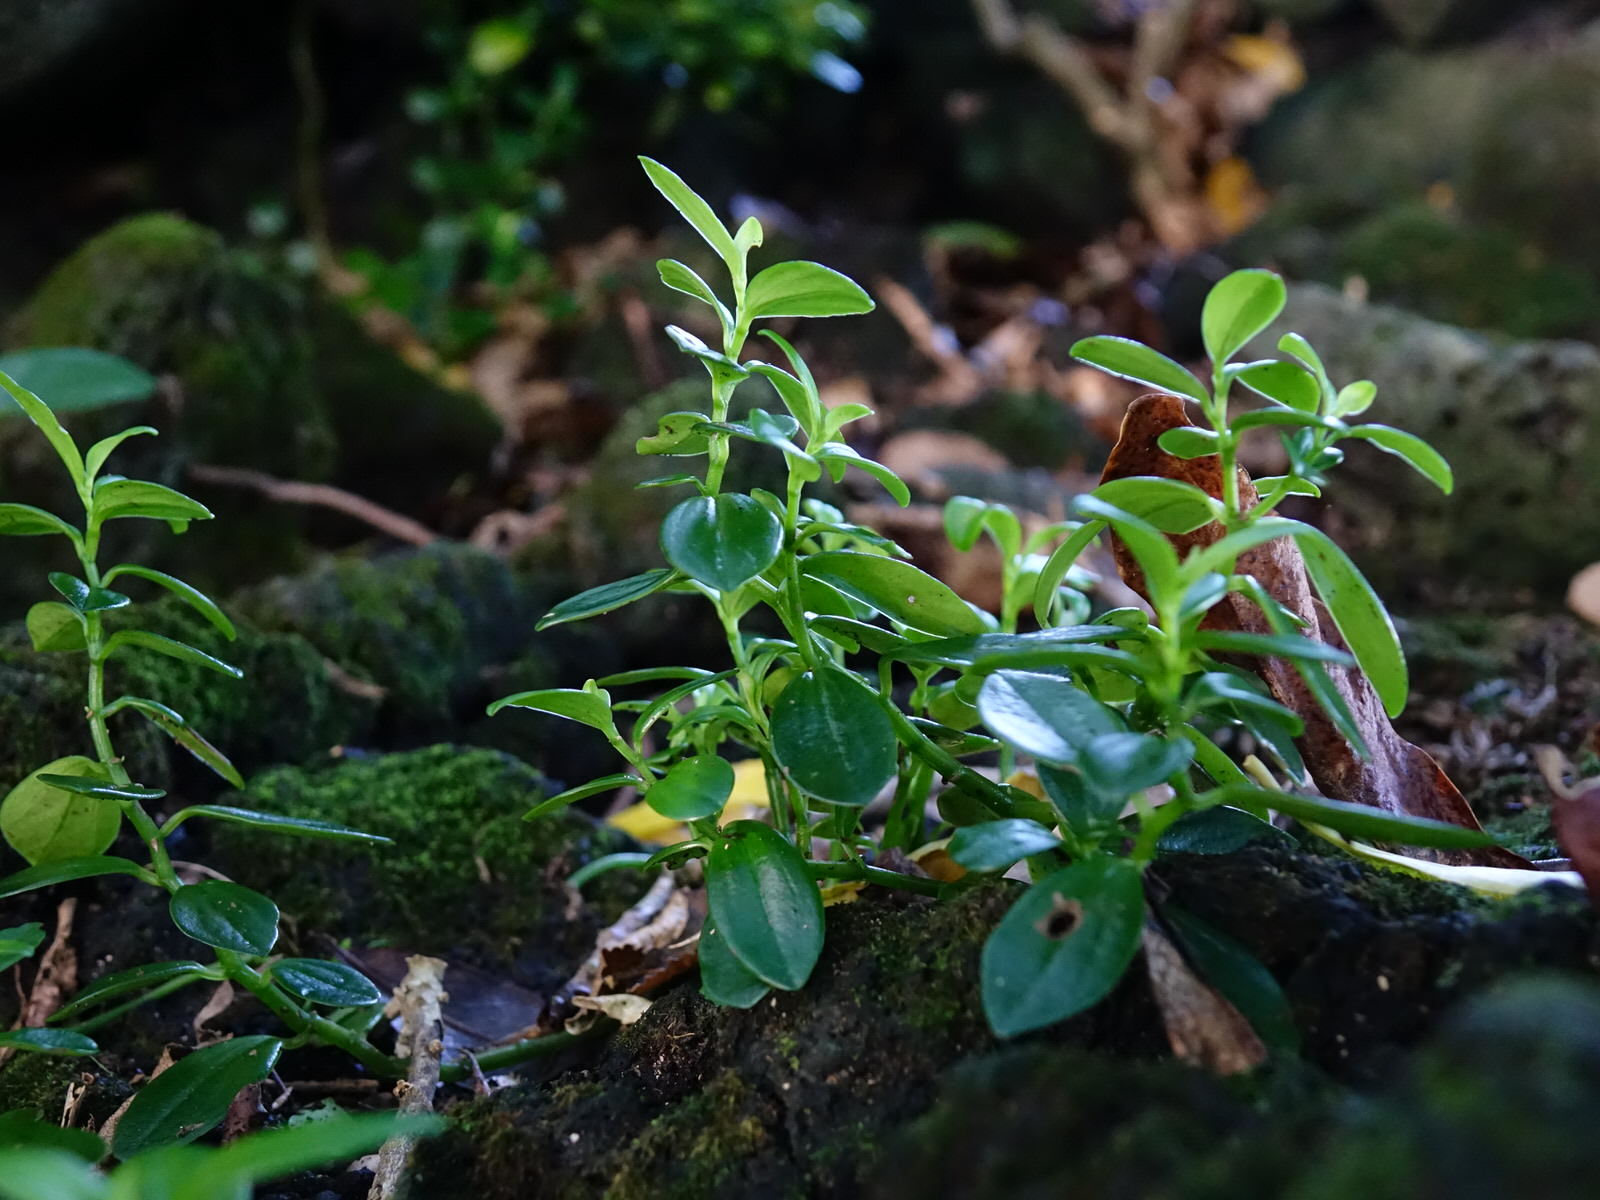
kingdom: Plantae
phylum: Tracheophyta
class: Magnoliopsida
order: Piperales
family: Piperaceae
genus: Peperomia
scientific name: Peperomia urvilleana
